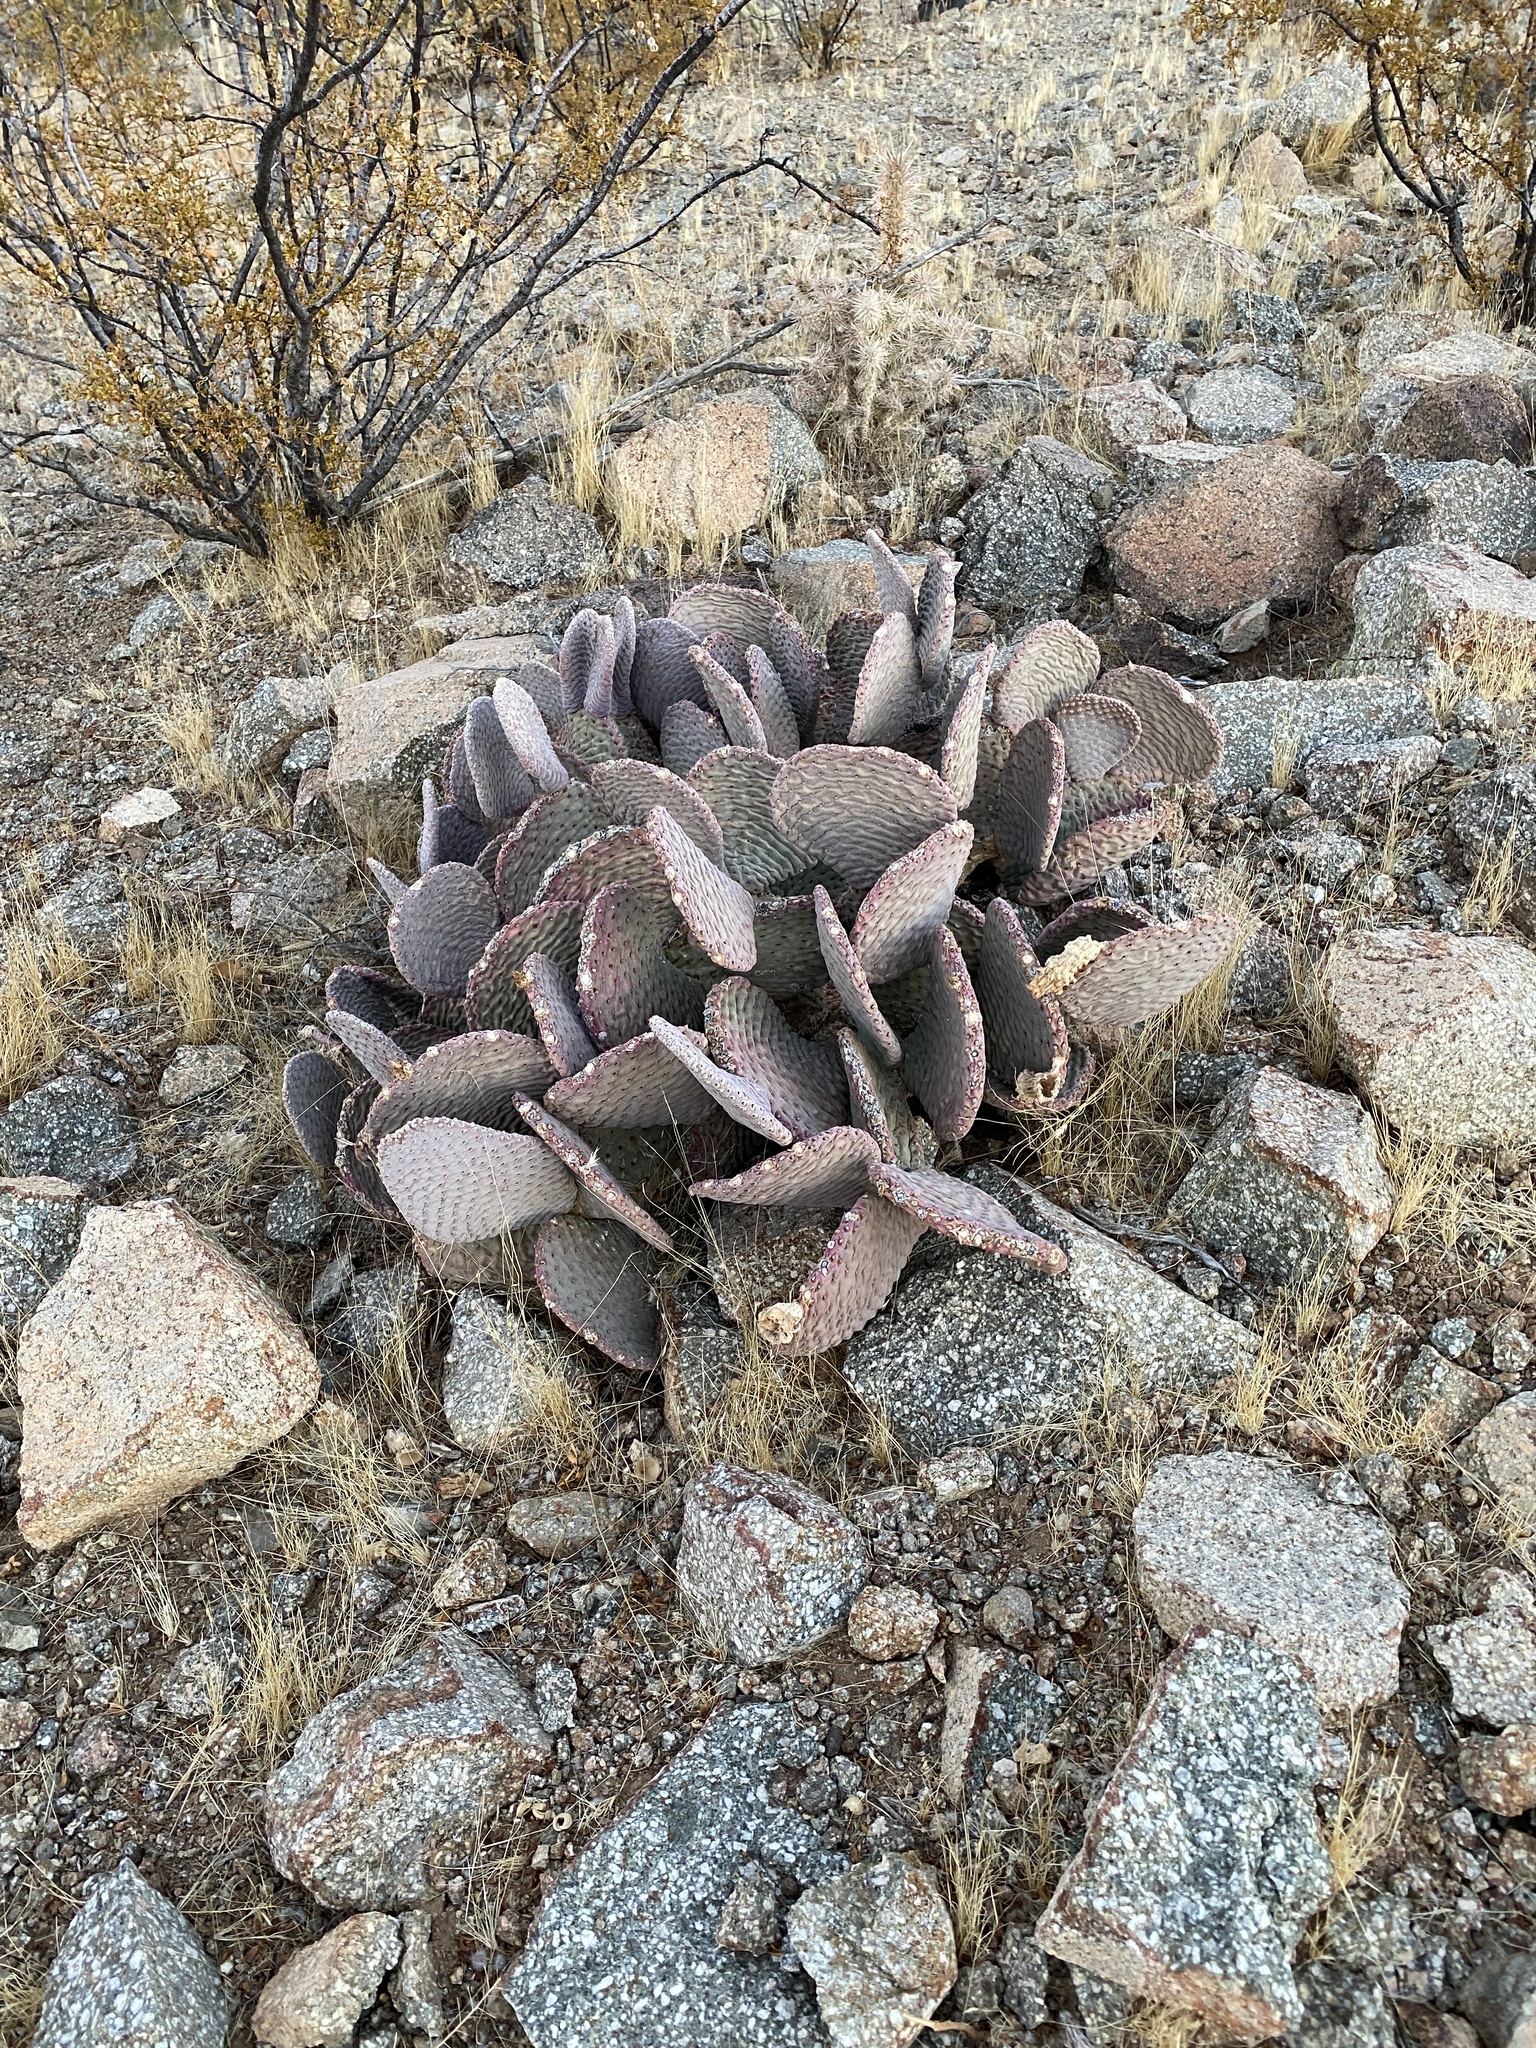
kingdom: Plantae
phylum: Tracheophyta
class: Magnoliopsida
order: Caryophyllales
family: Cactaceae
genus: Opuntia
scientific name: Opuntia basilaris
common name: Beavertail prickly-pear
